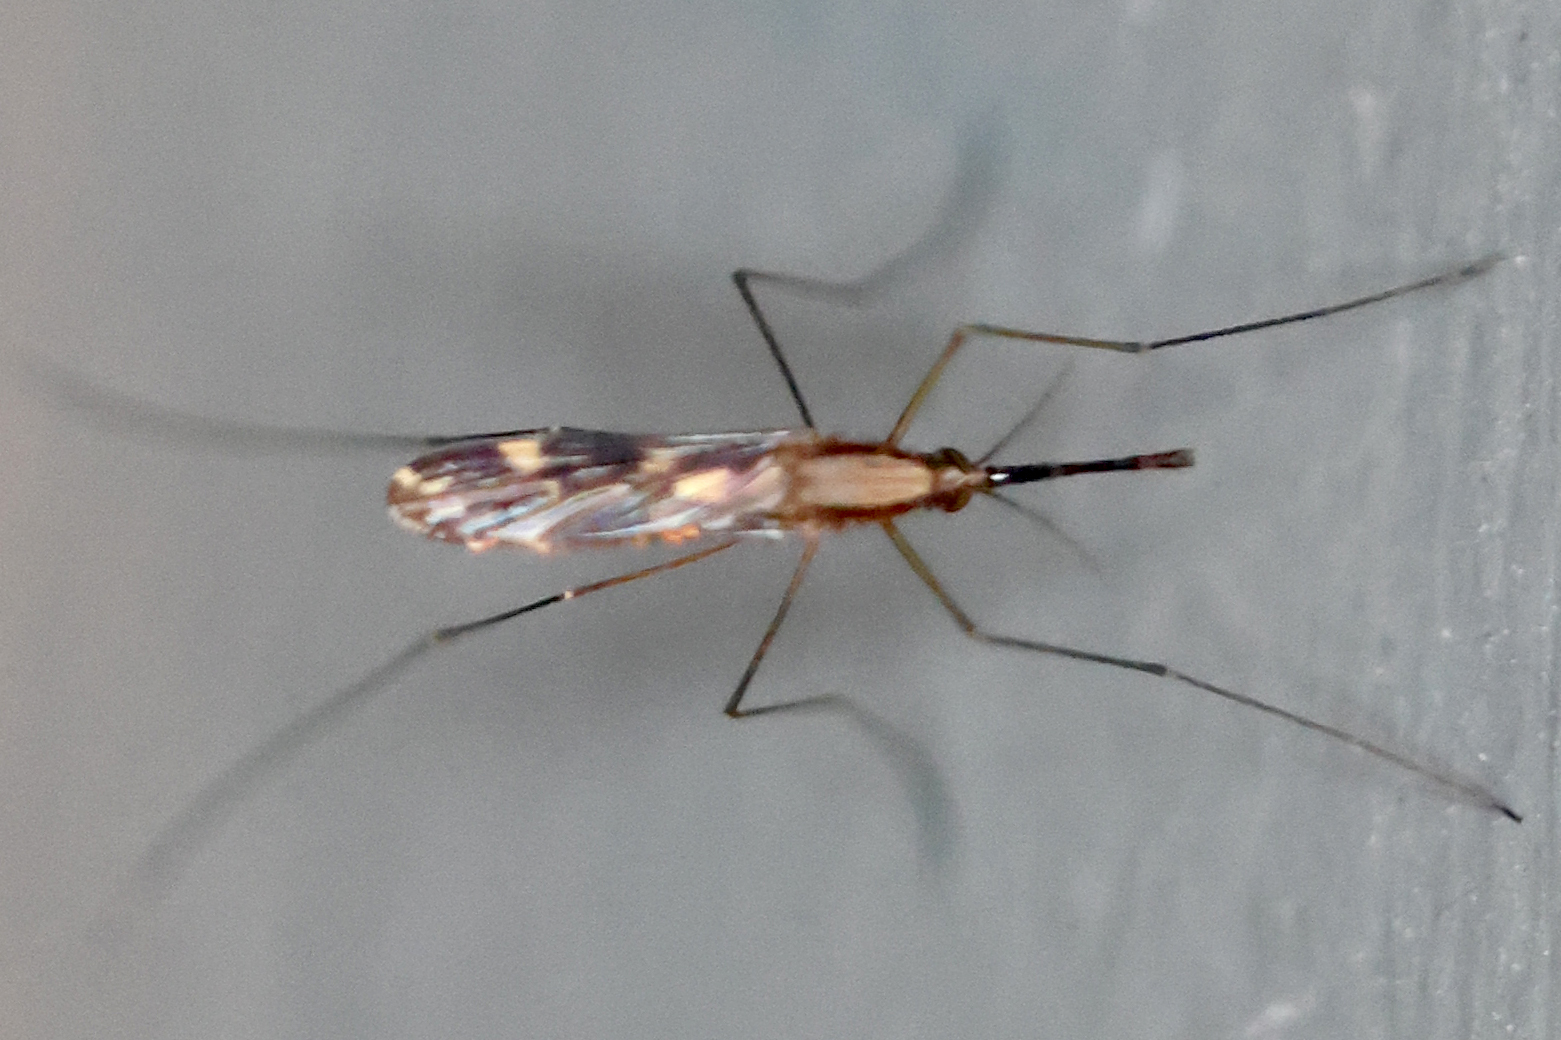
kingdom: Animalia
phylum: Arthropoda
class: Insecta
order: Diptera
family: Culicidae
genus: Anopheles
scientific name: Anopheles punctipennis
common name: Woodland malaria mosquito
